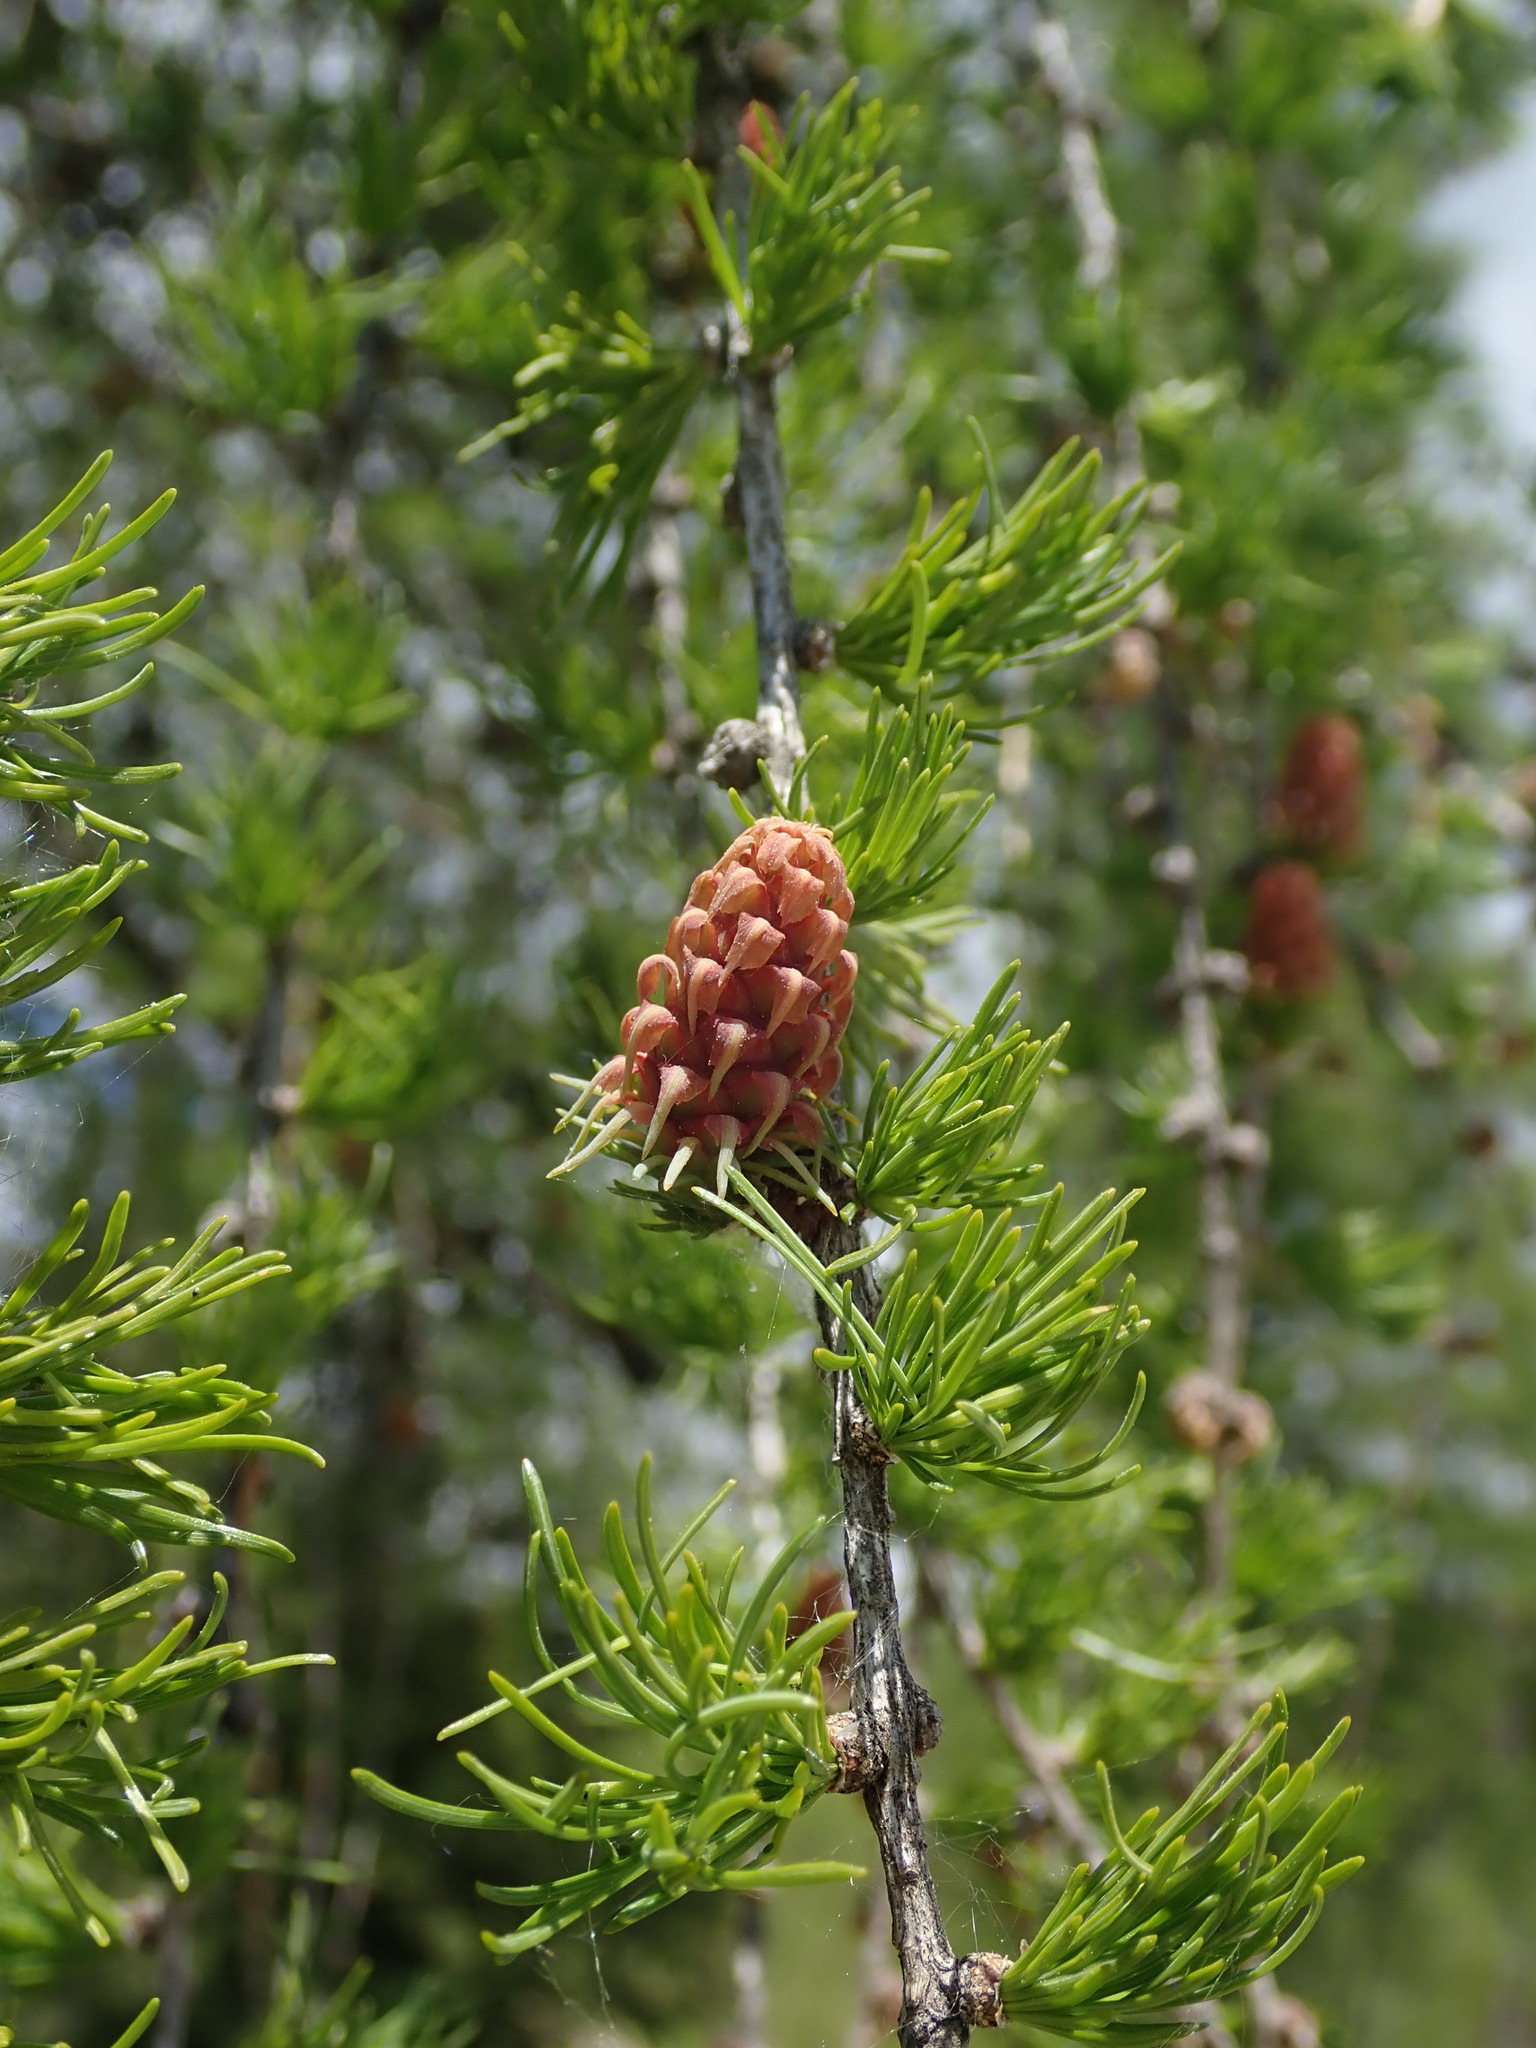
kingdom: Plantae
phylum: Tracheophyta
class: Pinopsida
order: Pinales
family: Pinaceae
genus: Larix
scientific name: Larix decidua
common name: European larch
